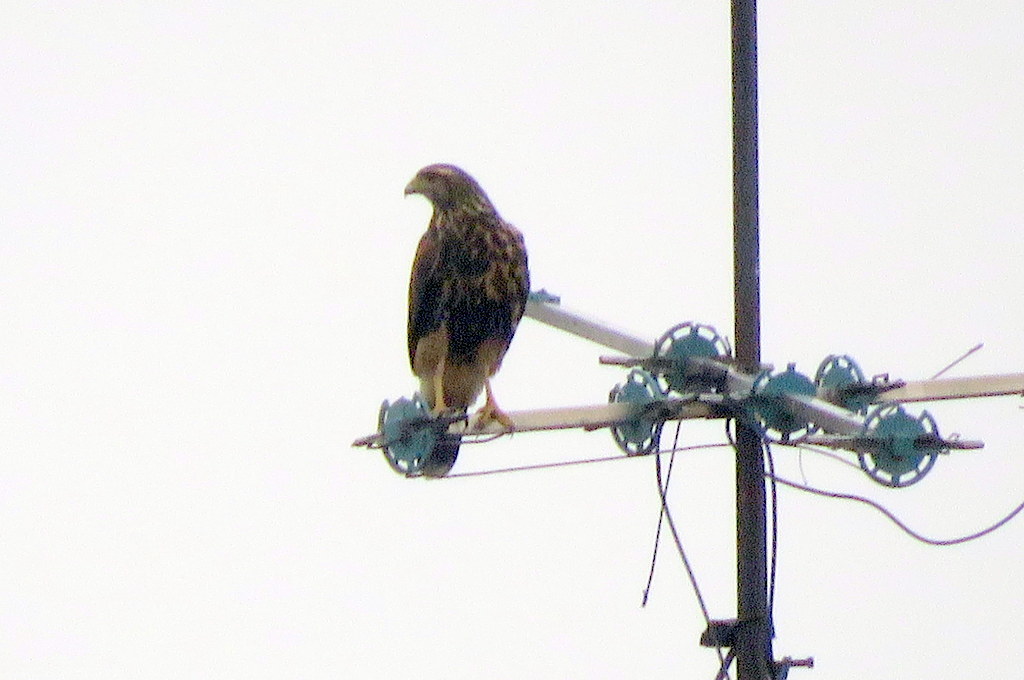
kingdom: Animalia
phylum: Chordata
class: Aves
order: Accipitriformes
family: Accipitridae
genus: Parabuteo
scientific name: Parabuteo unicinctus
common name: Harris's hawk
